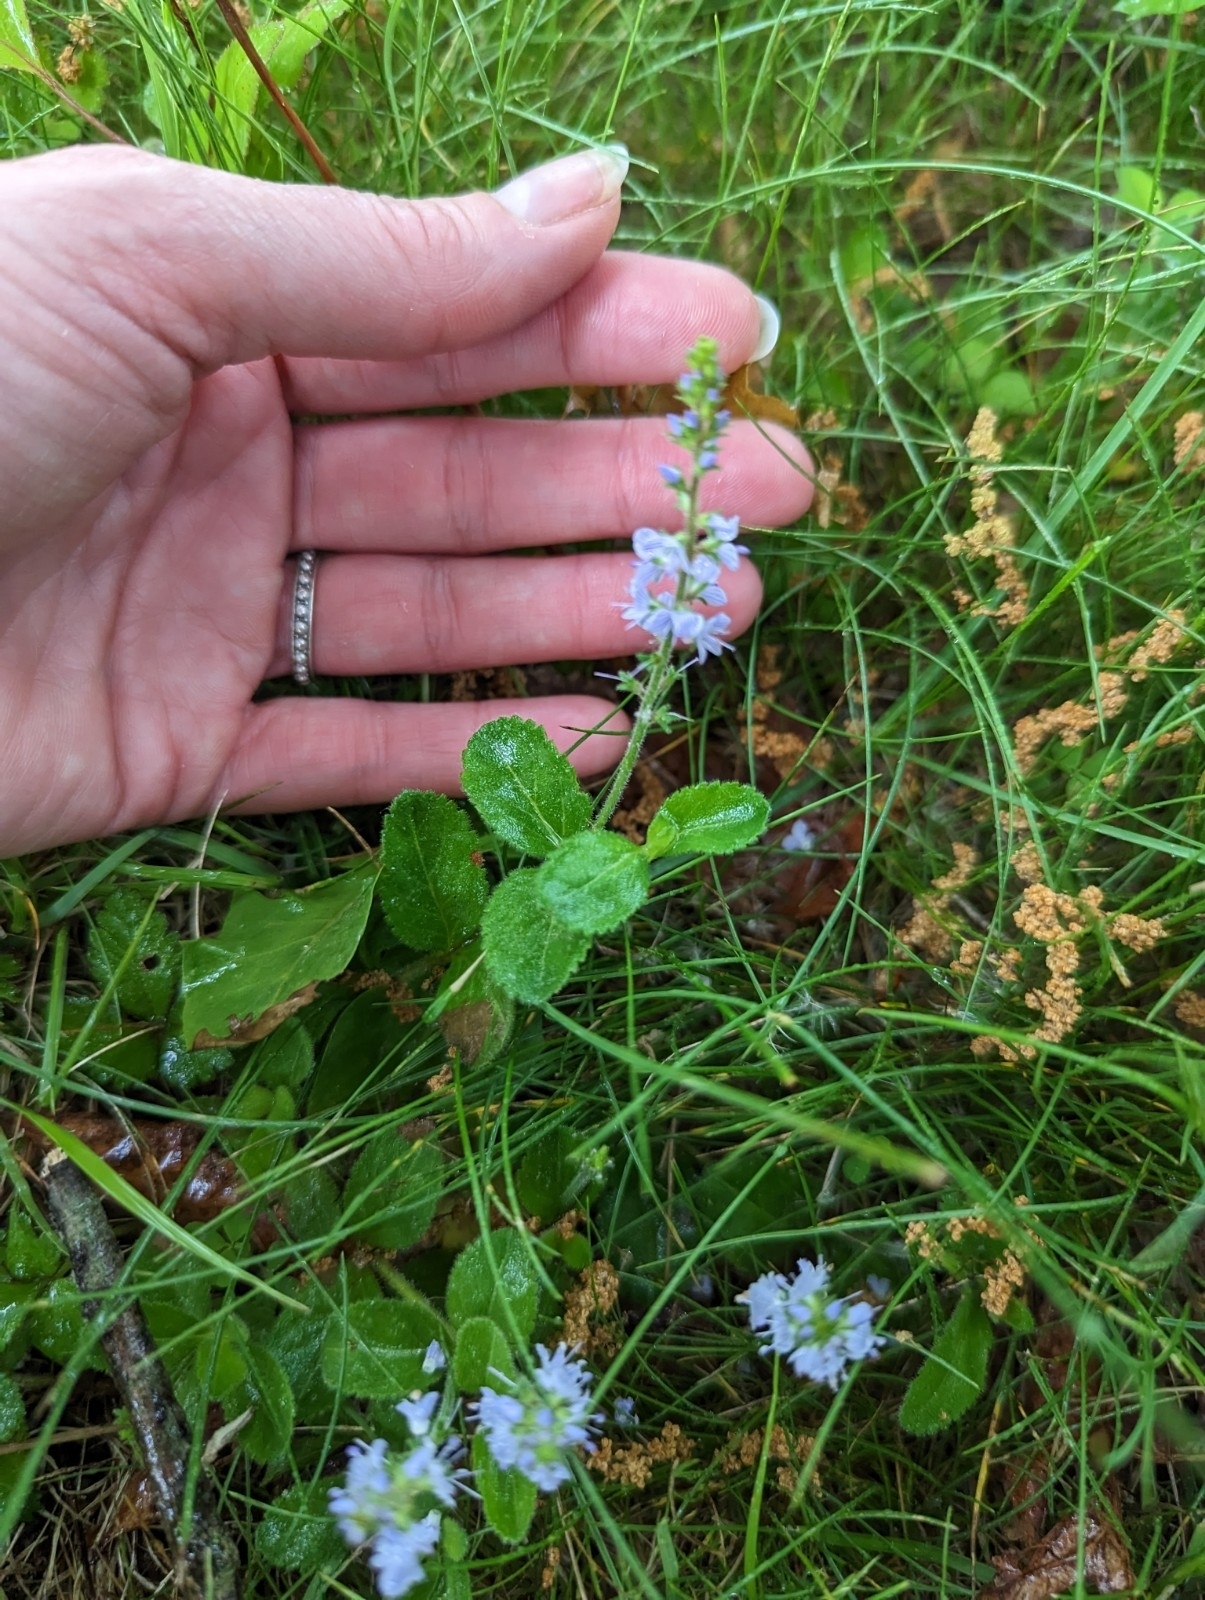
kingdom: Plantae
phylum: Tracheophyta
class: Magnoliopsida
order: Lamiales
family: Plantaginaceae
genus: Veronica
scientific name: Veronica officinalis
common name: Common speedwell
